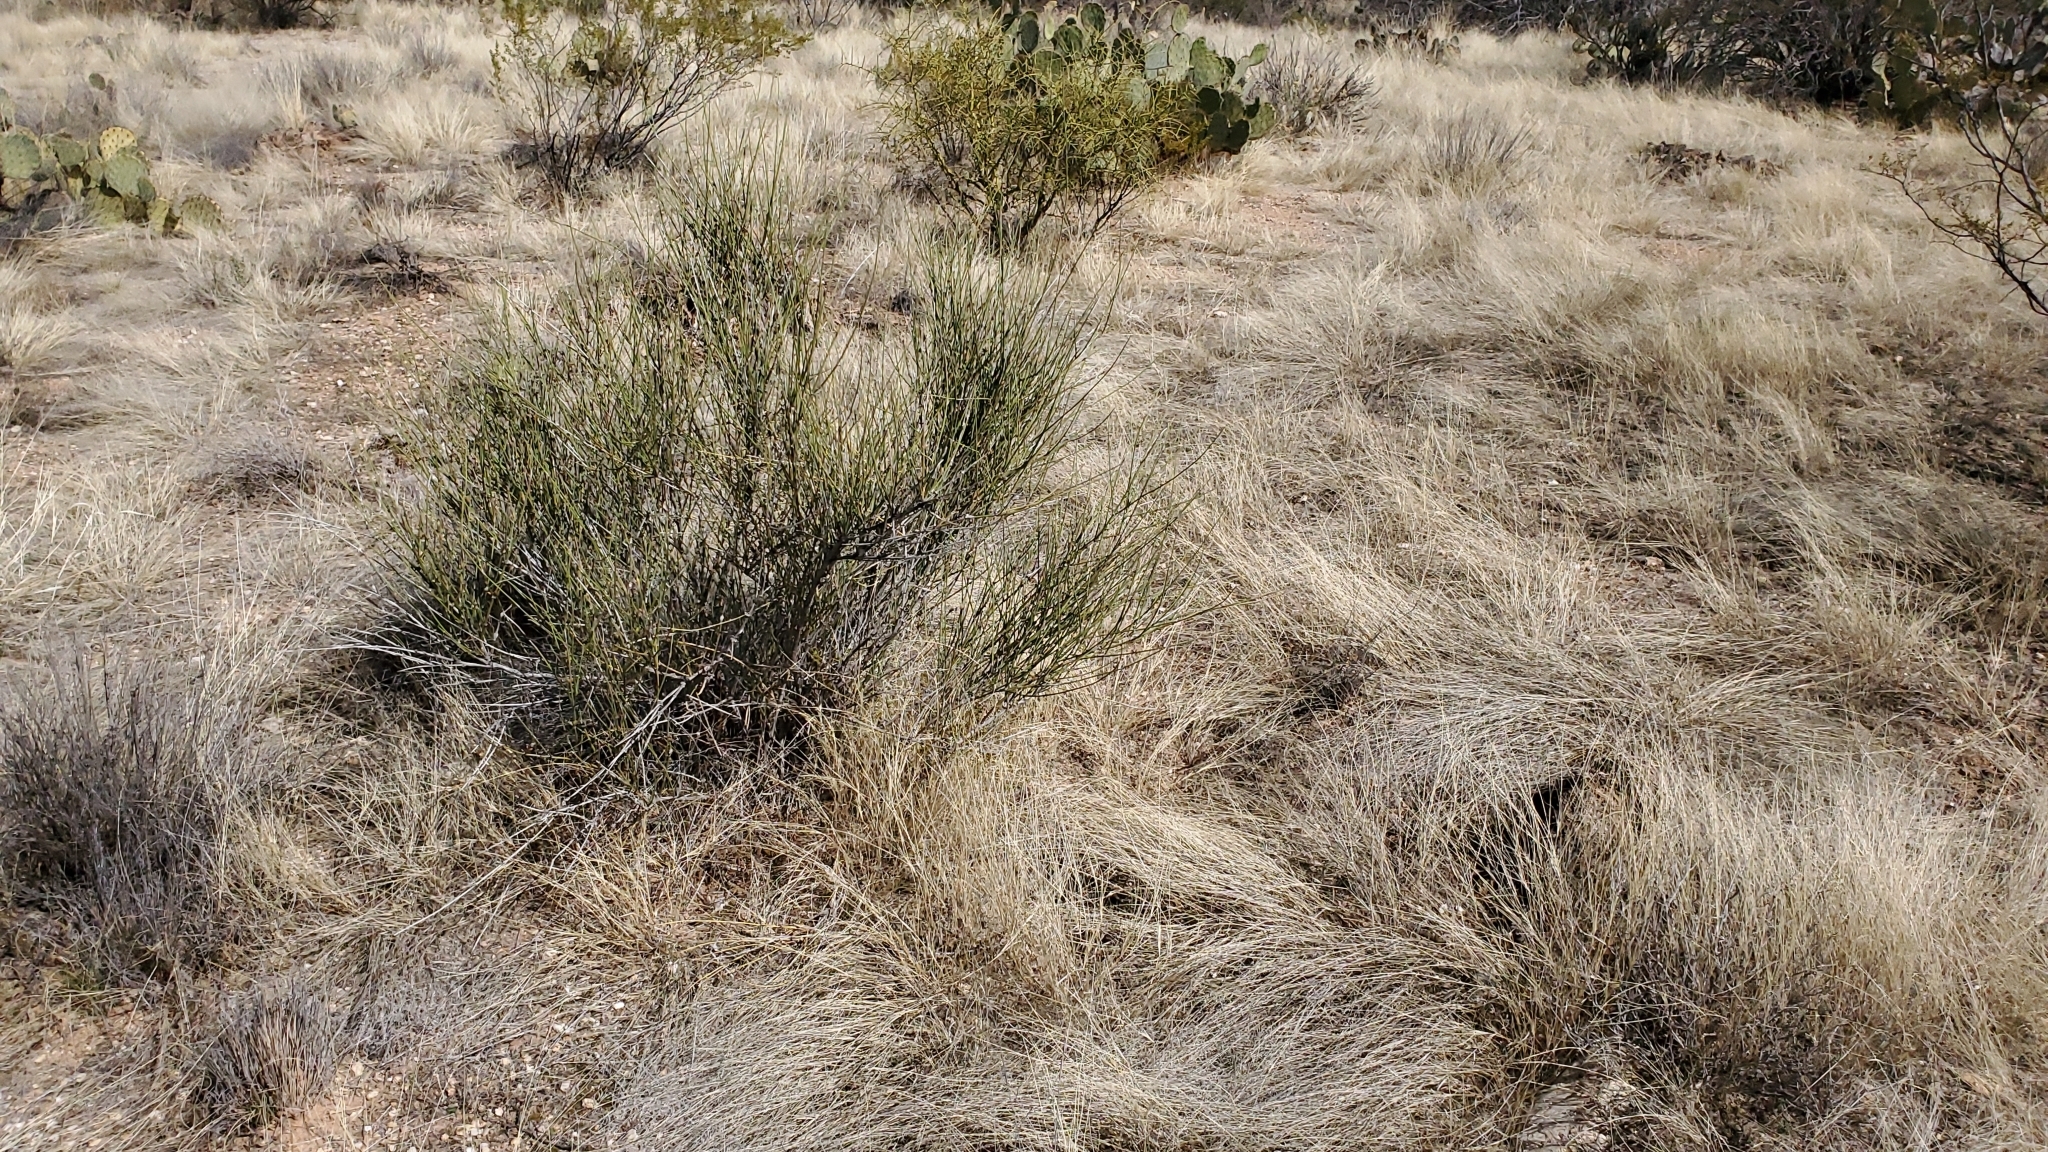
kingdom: Plantae
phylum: Tracheophyta
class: Gnetopsida
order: Ephedrales
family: Ephedraceae
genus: Ephedra
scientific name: Ephedra trifurca
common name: Mexican-tea
